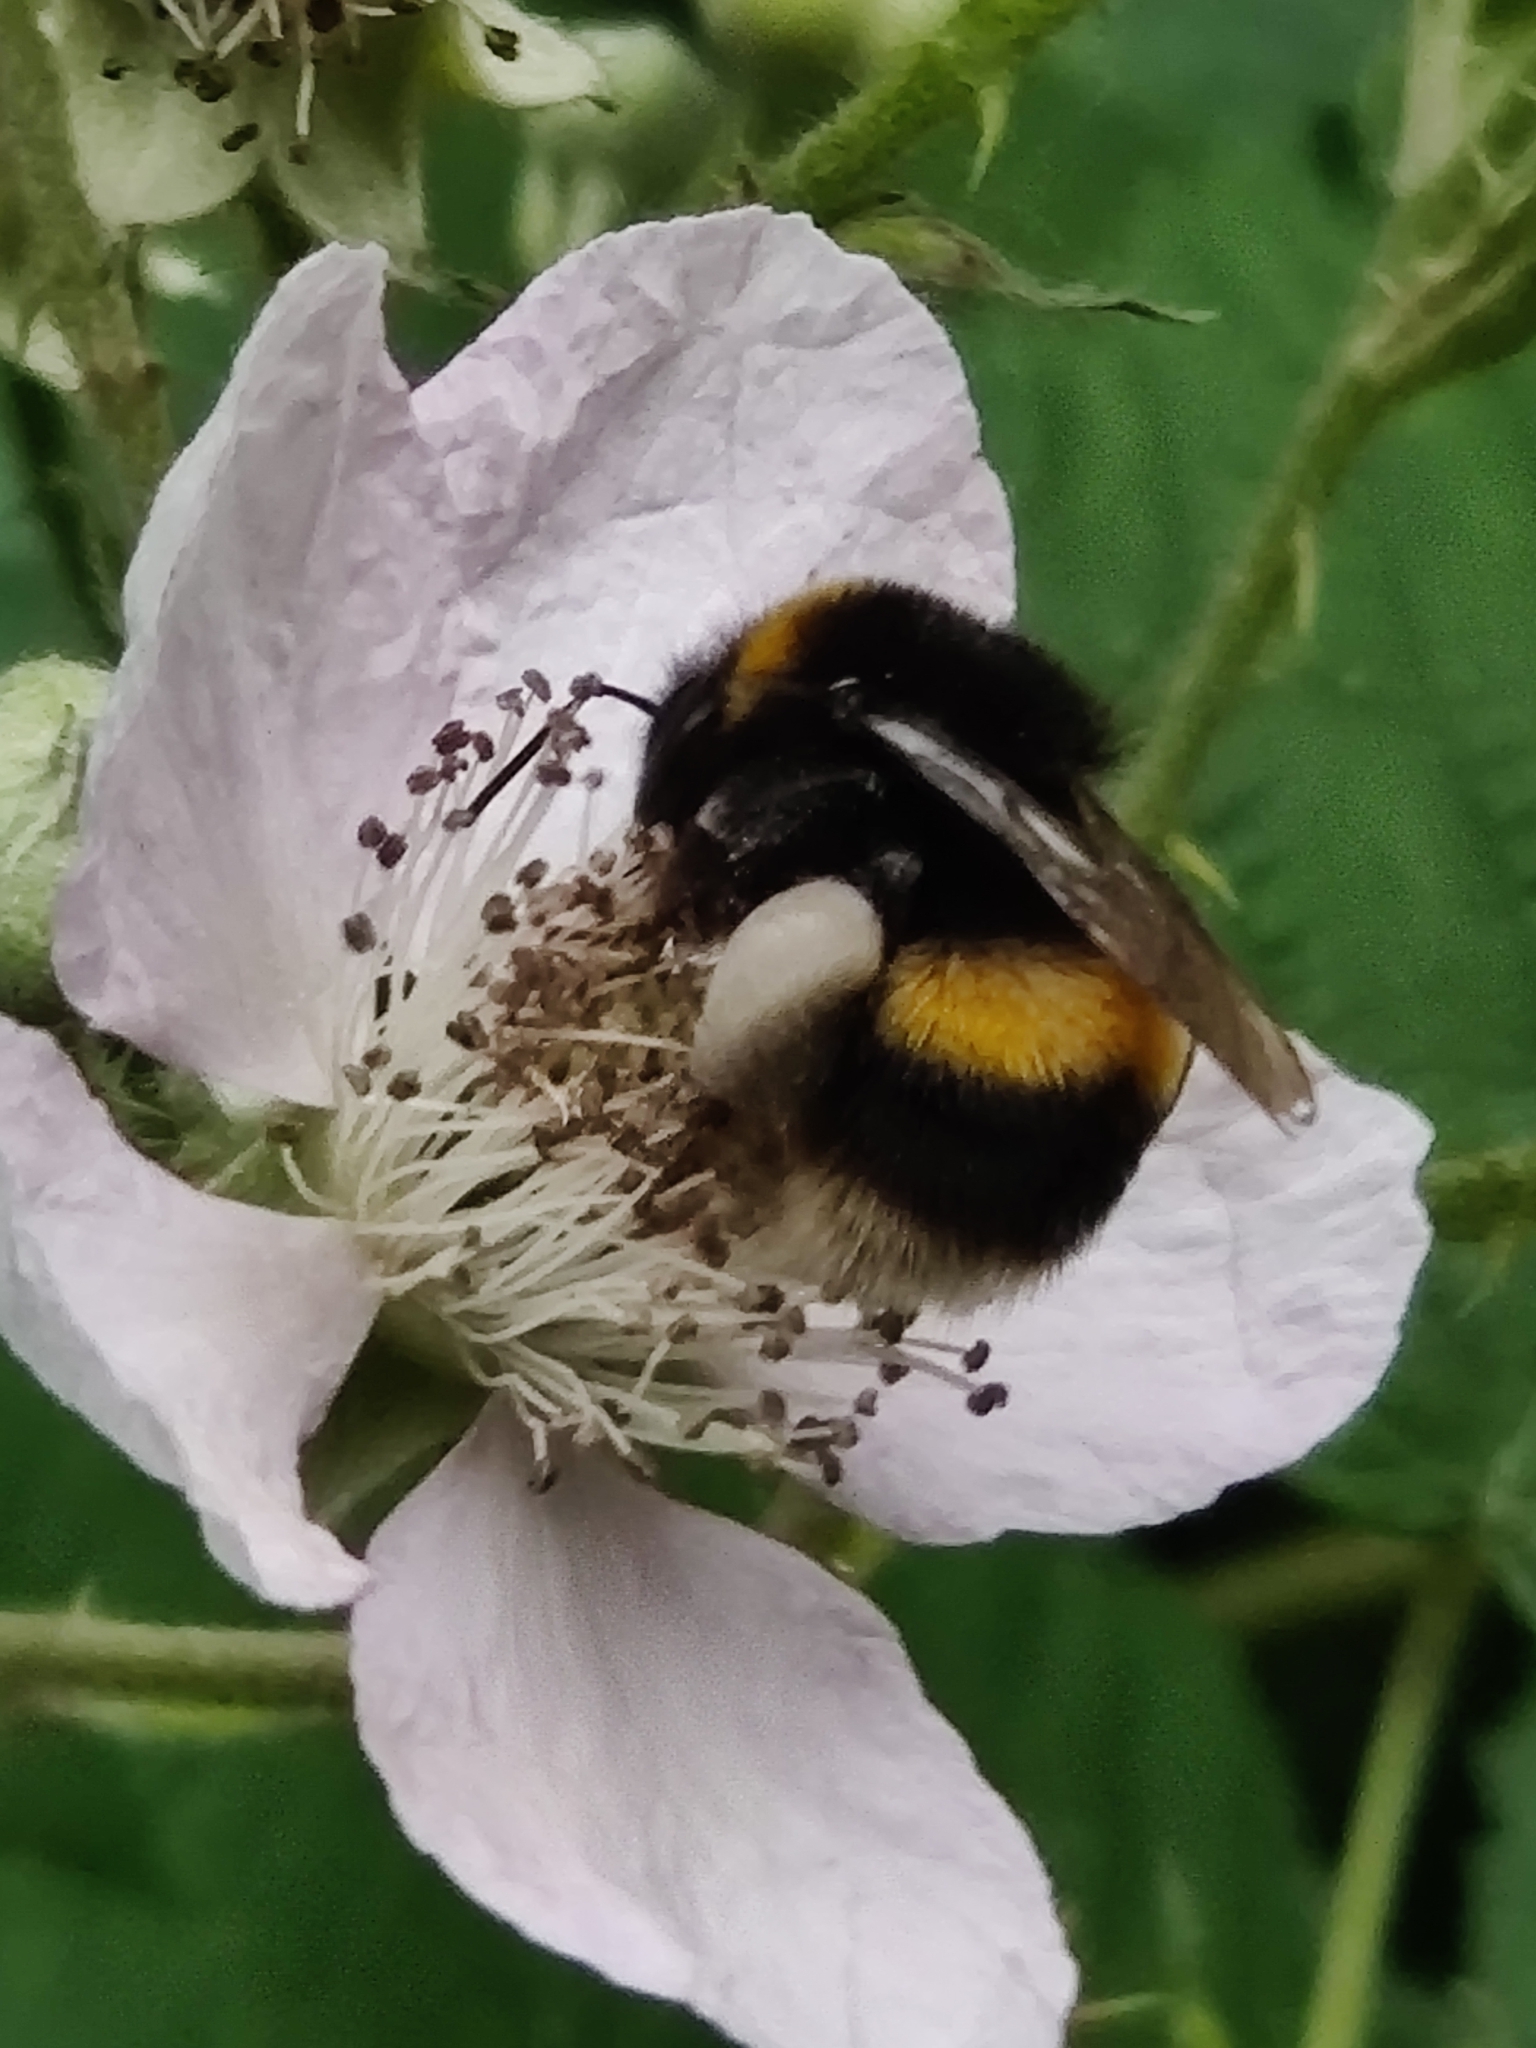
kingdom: Animalia
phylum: Arthropoda
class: Insecta
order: Hymenoptera
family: Apidae
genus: Bombus
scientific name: Bombus terrestris
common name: Buff-tailed bumblebee
